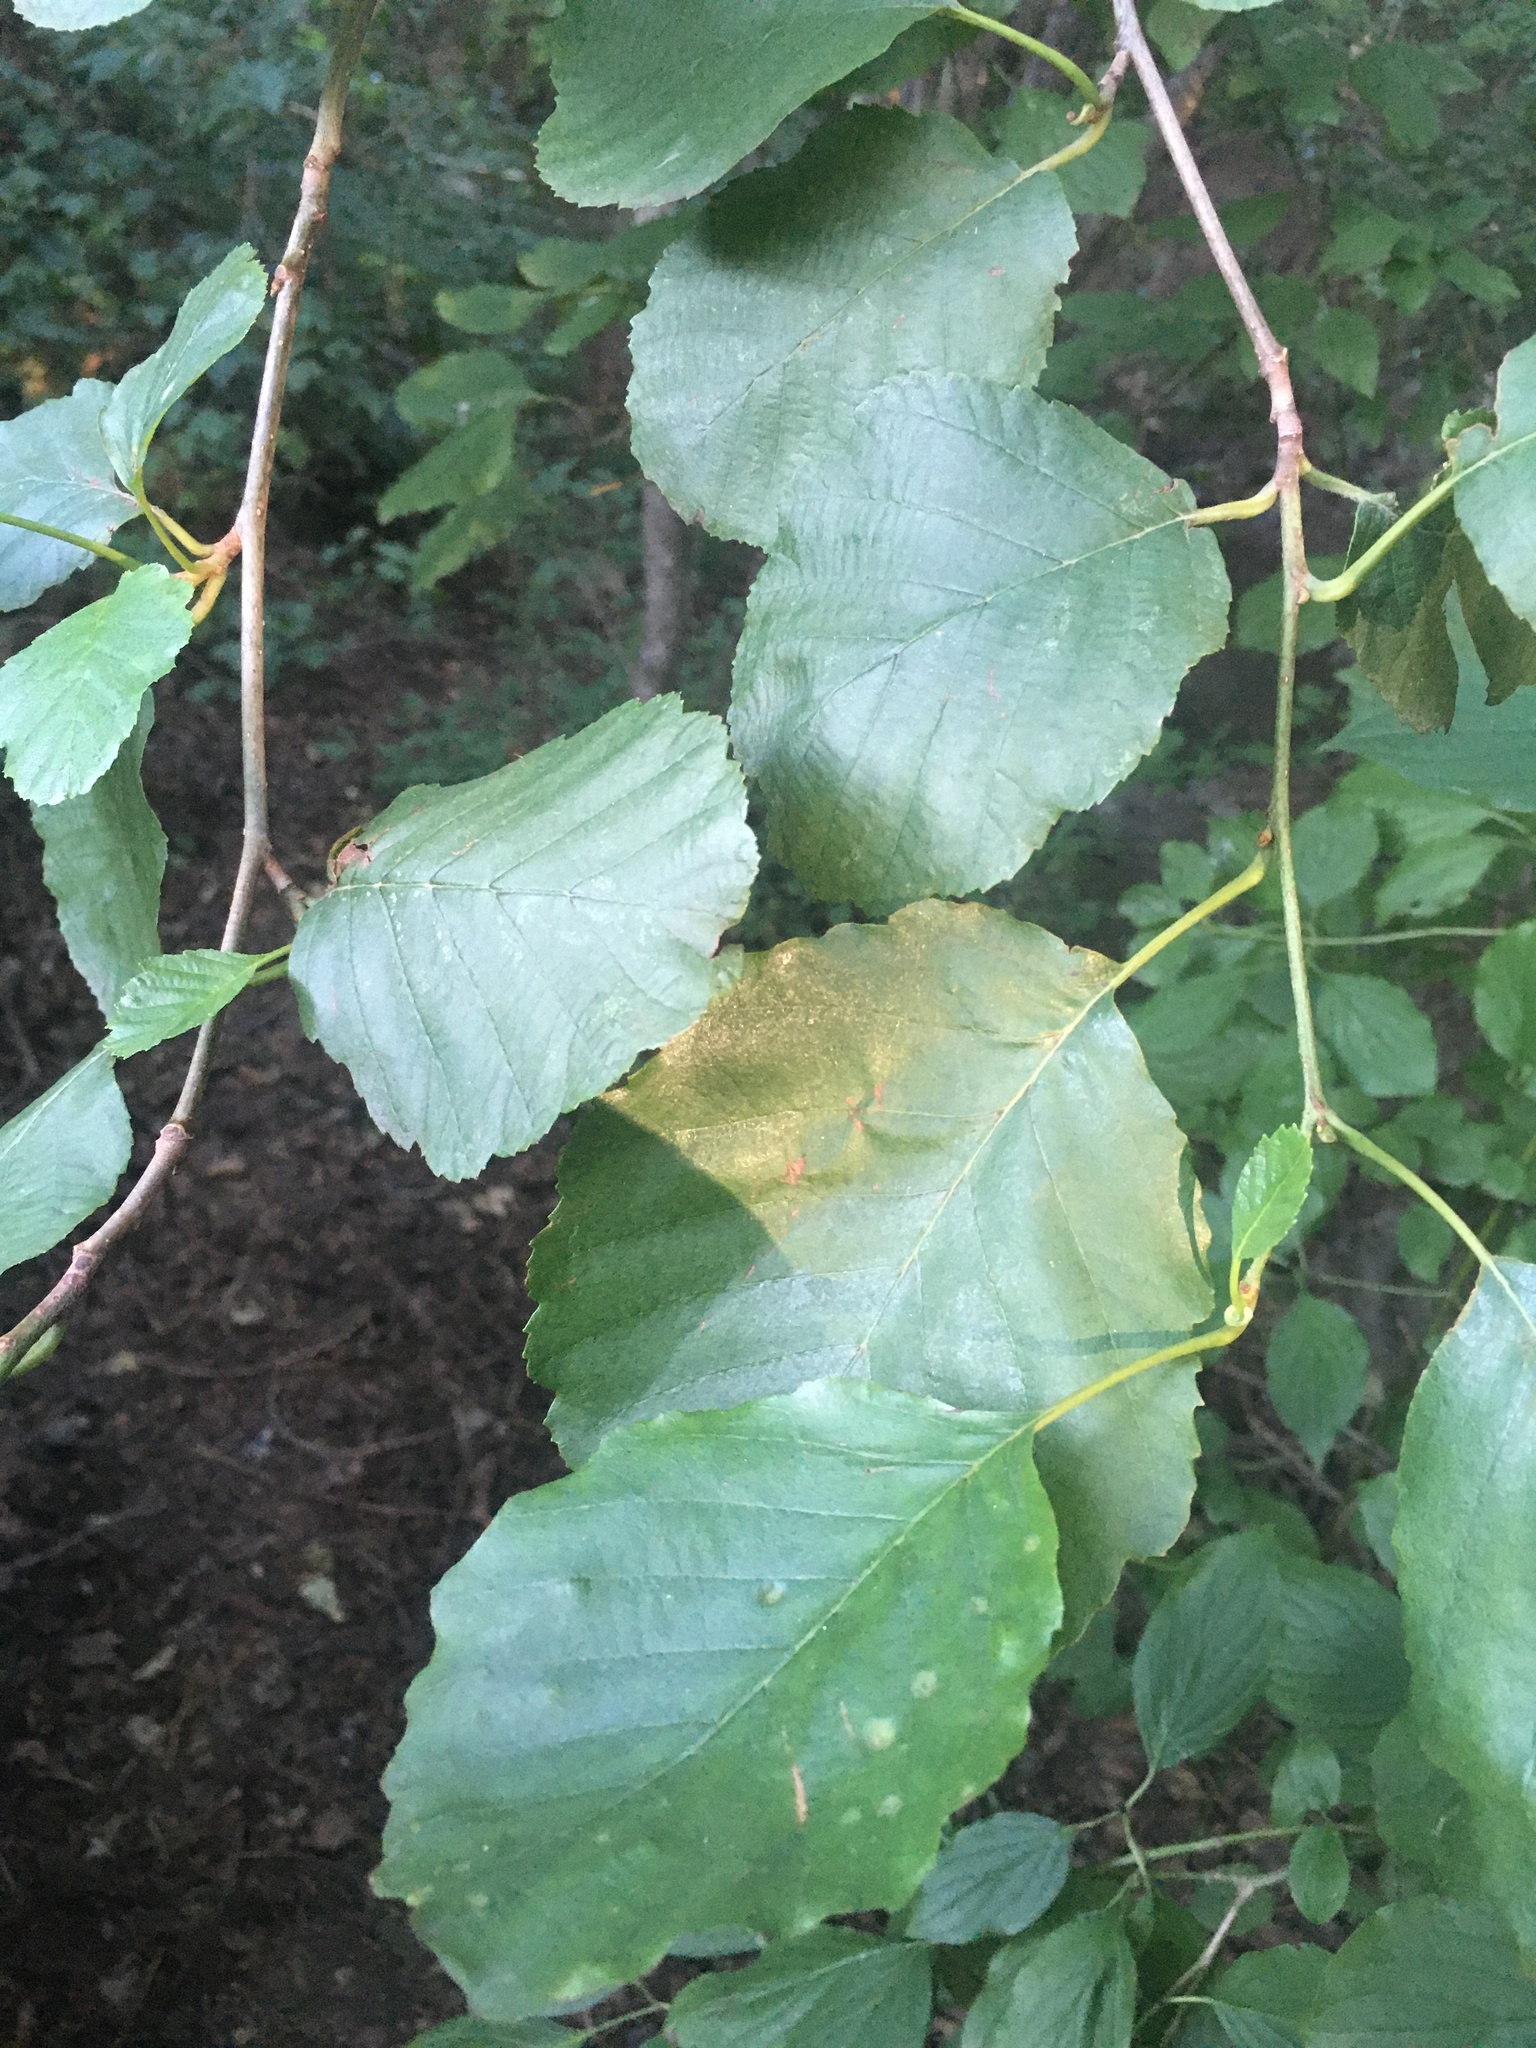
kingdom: Plantae
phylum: Tracheophyta
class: Magnoliopsida
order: Fagales
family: Betulaceae
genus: Alnus
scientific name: Alnus glutinosa
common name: Black alder
